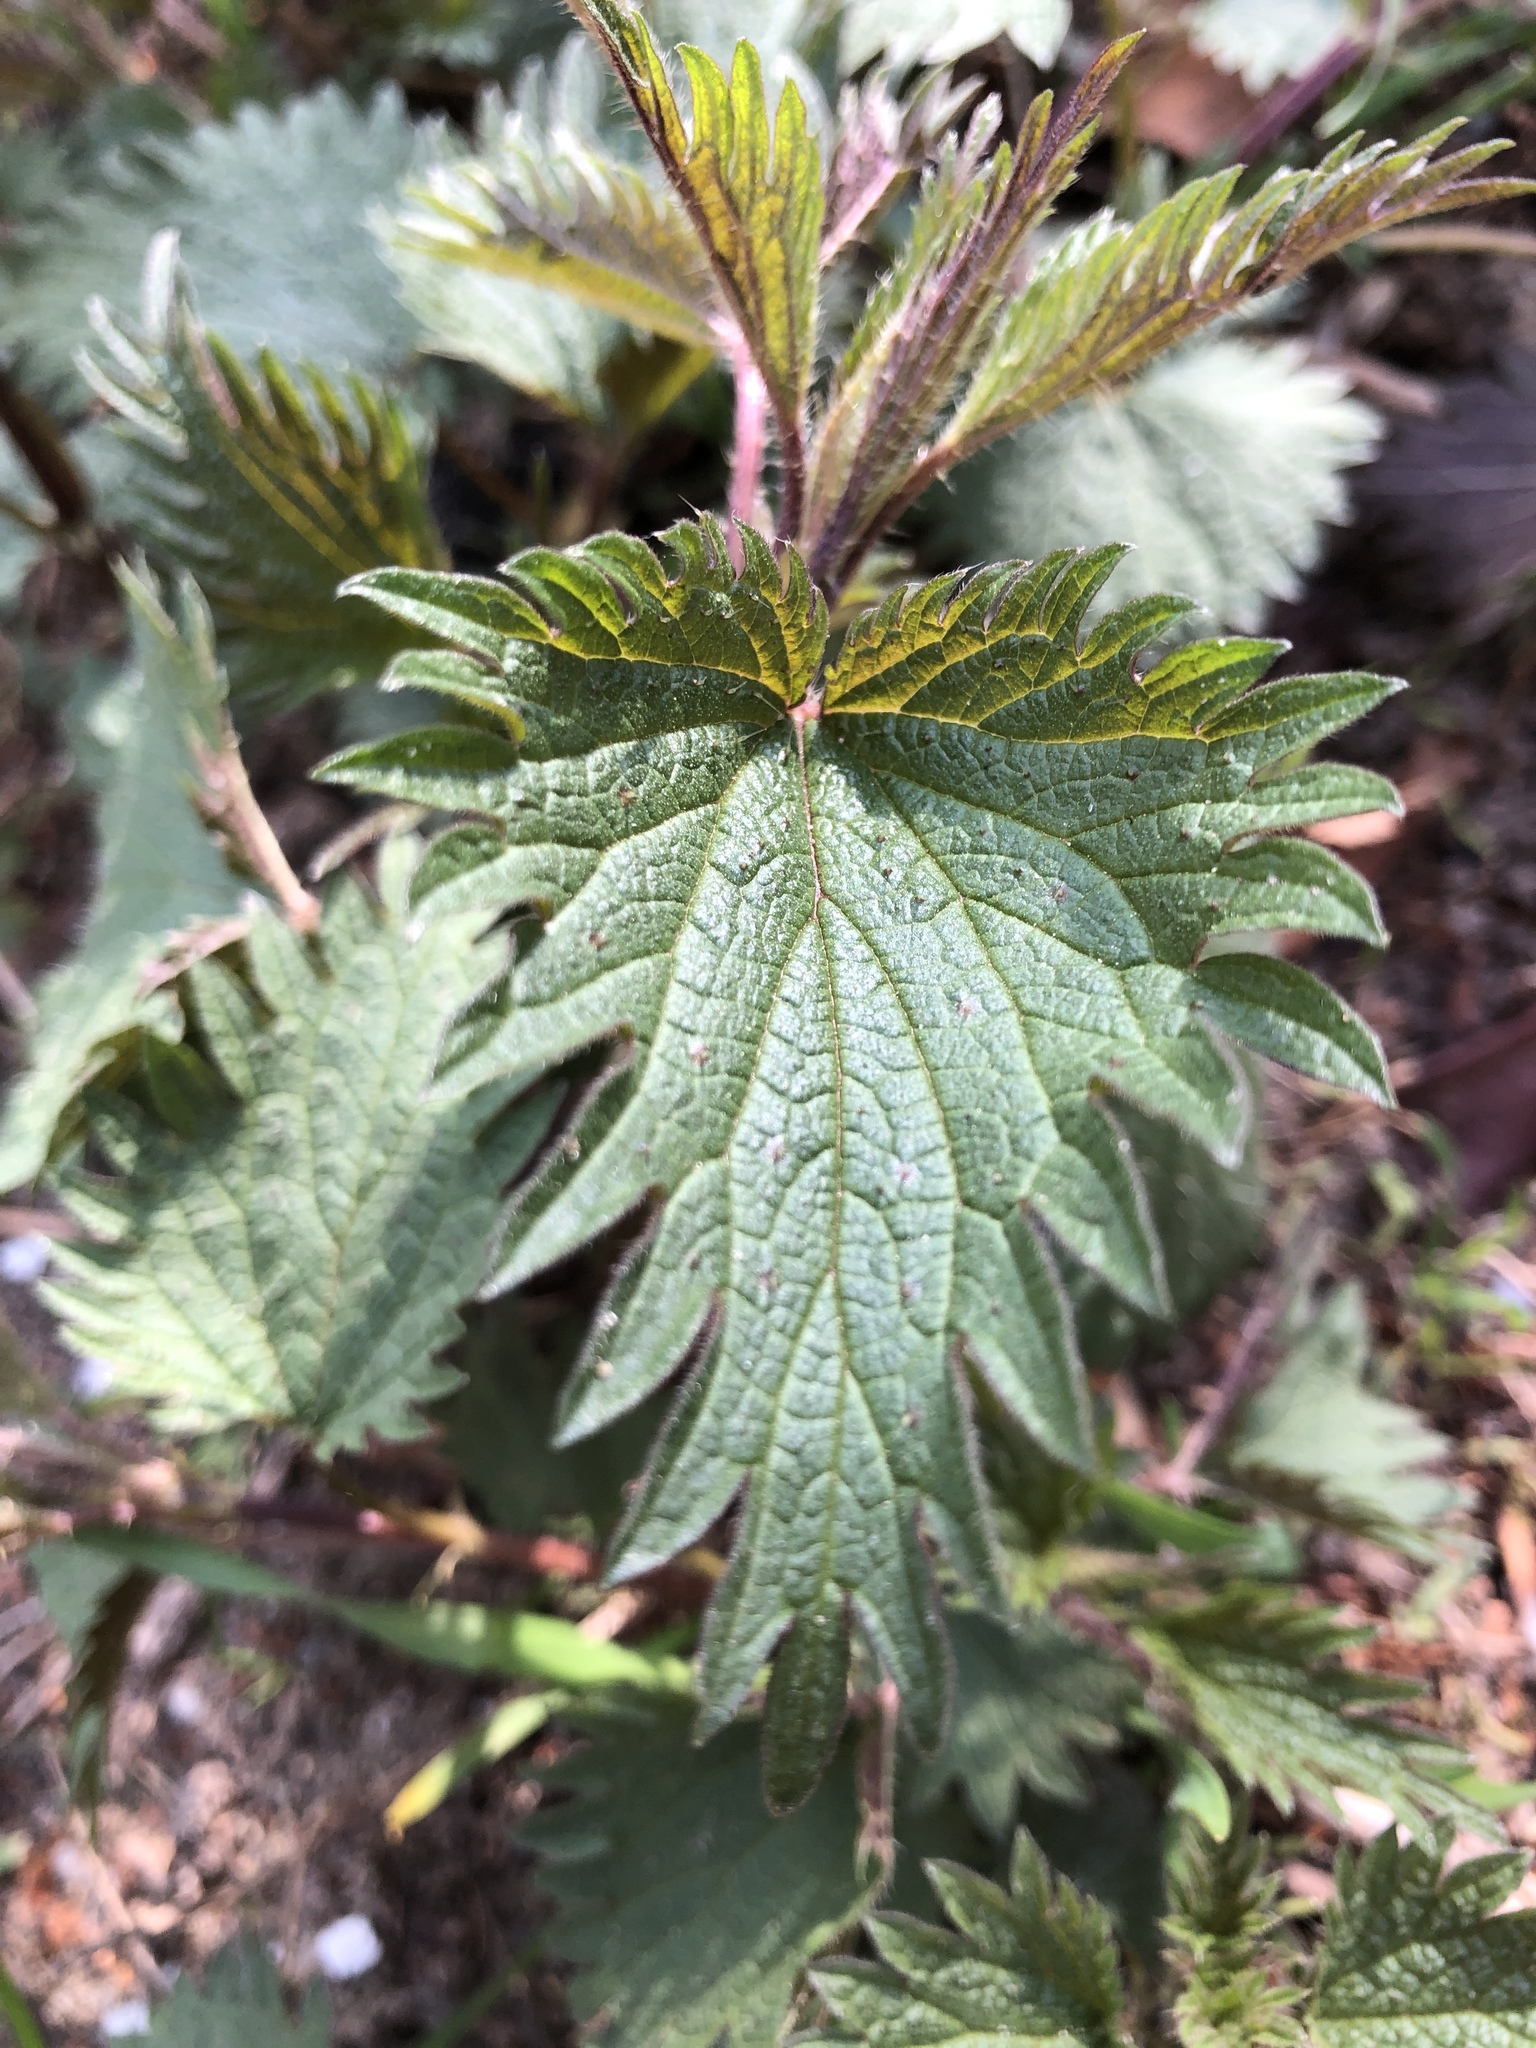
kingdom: Plantae
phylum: Tracheophyta
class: Magnoliopsida
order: Rosales
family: Urticaceae
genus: Urtica
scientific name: Urtica dioica
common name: Common nettle
